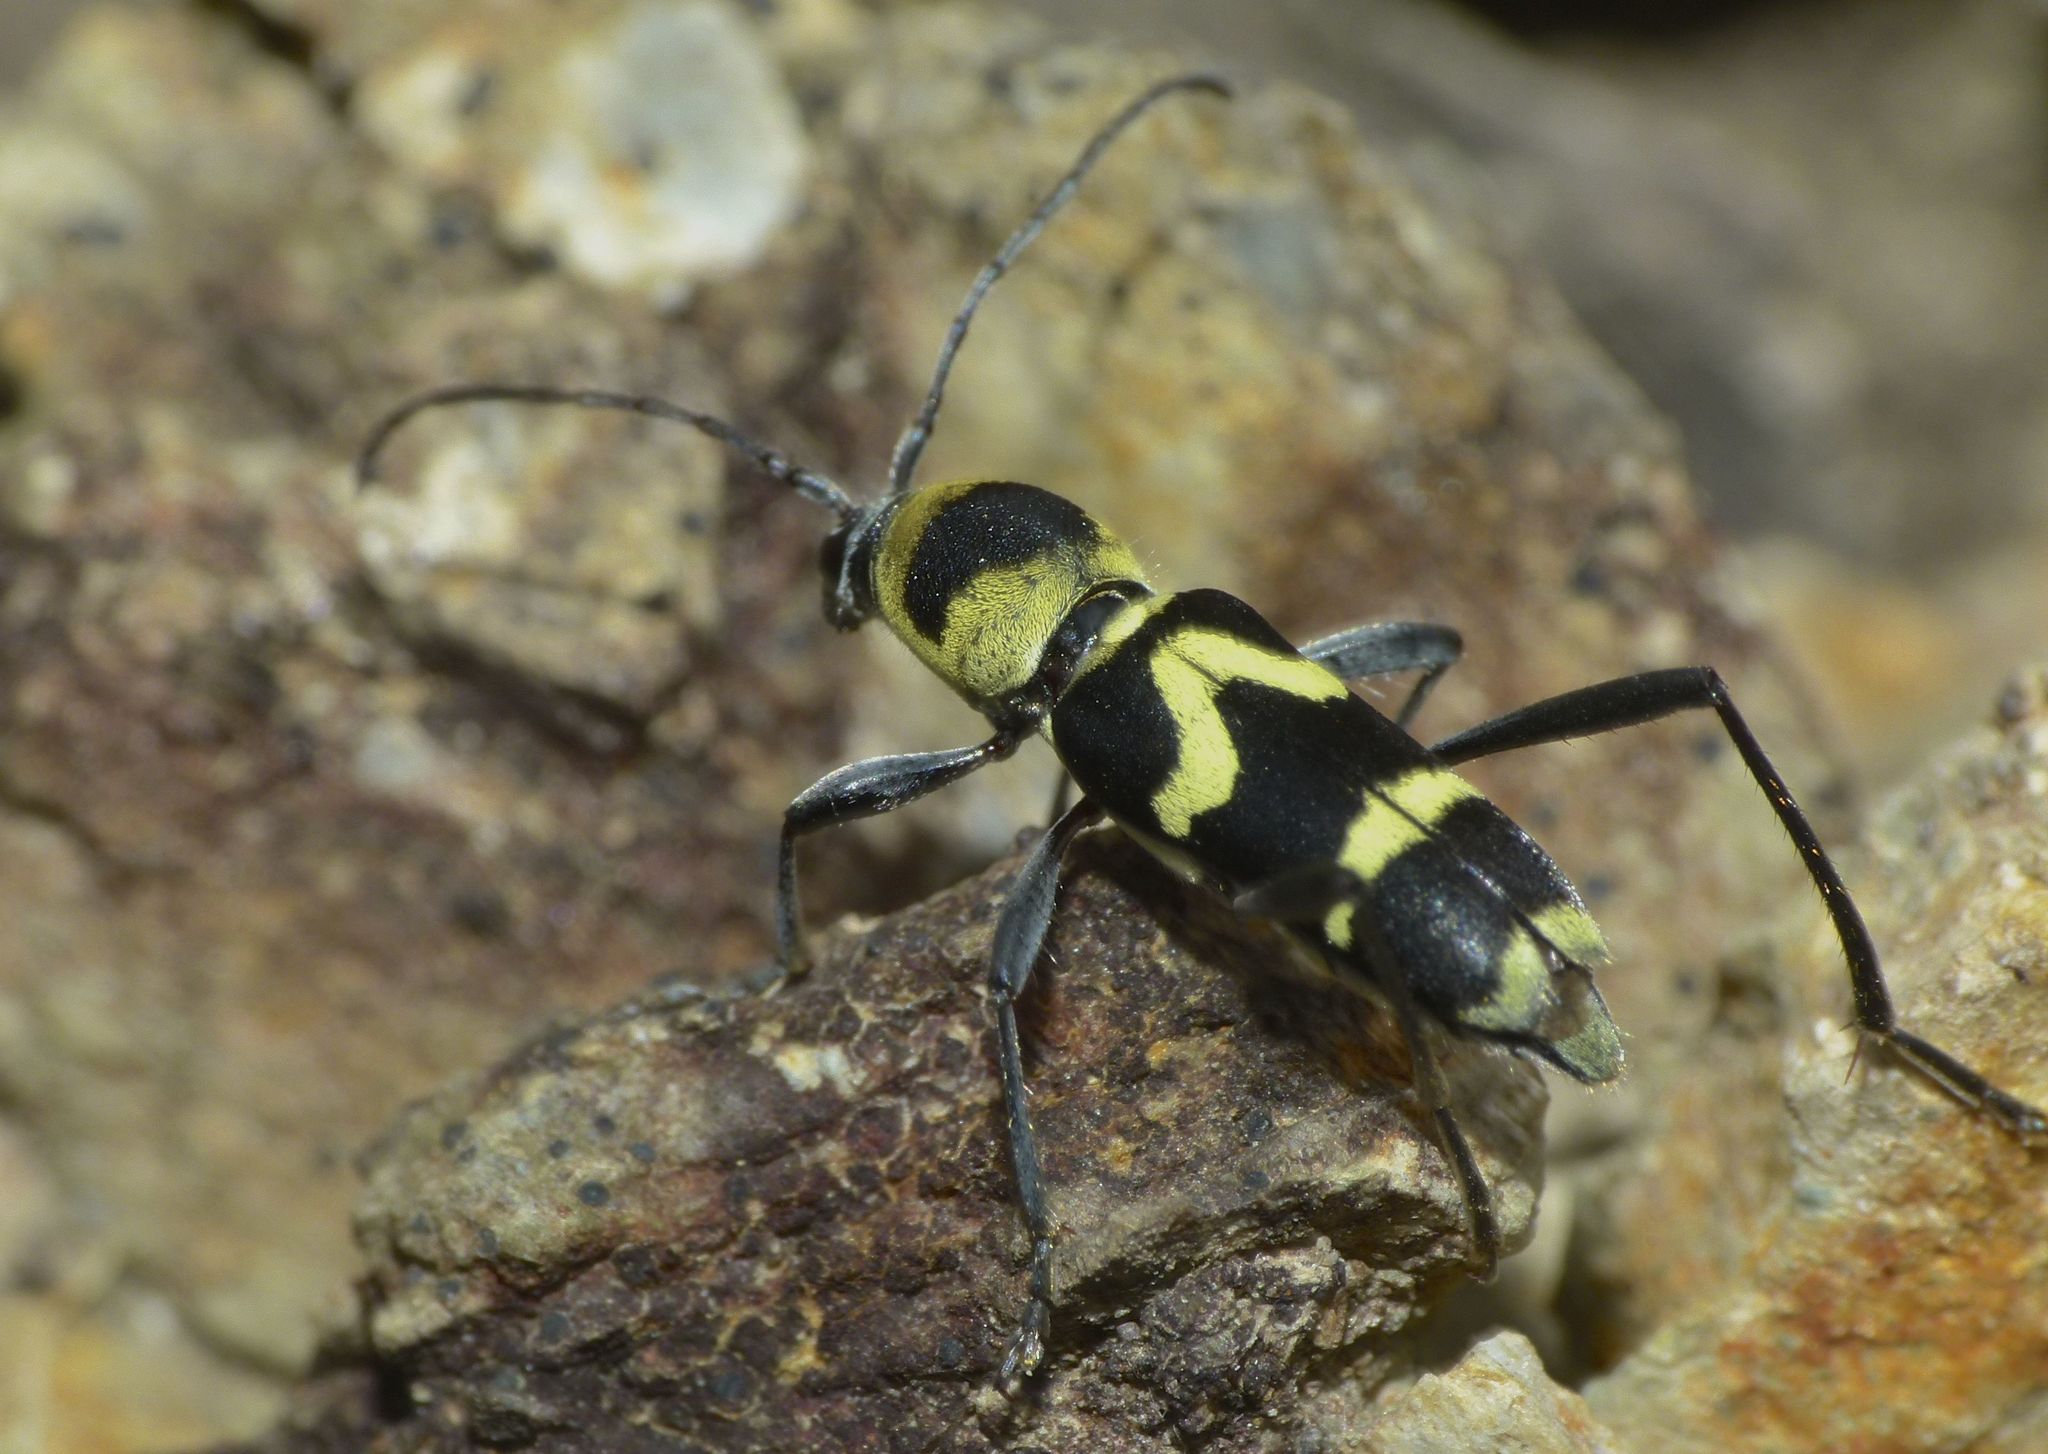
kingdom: Animalia
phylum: Arthropoda
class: Insecta
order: Coleoptera
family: Cerambycidae
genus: Clytus
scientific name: Clytus curtisi
